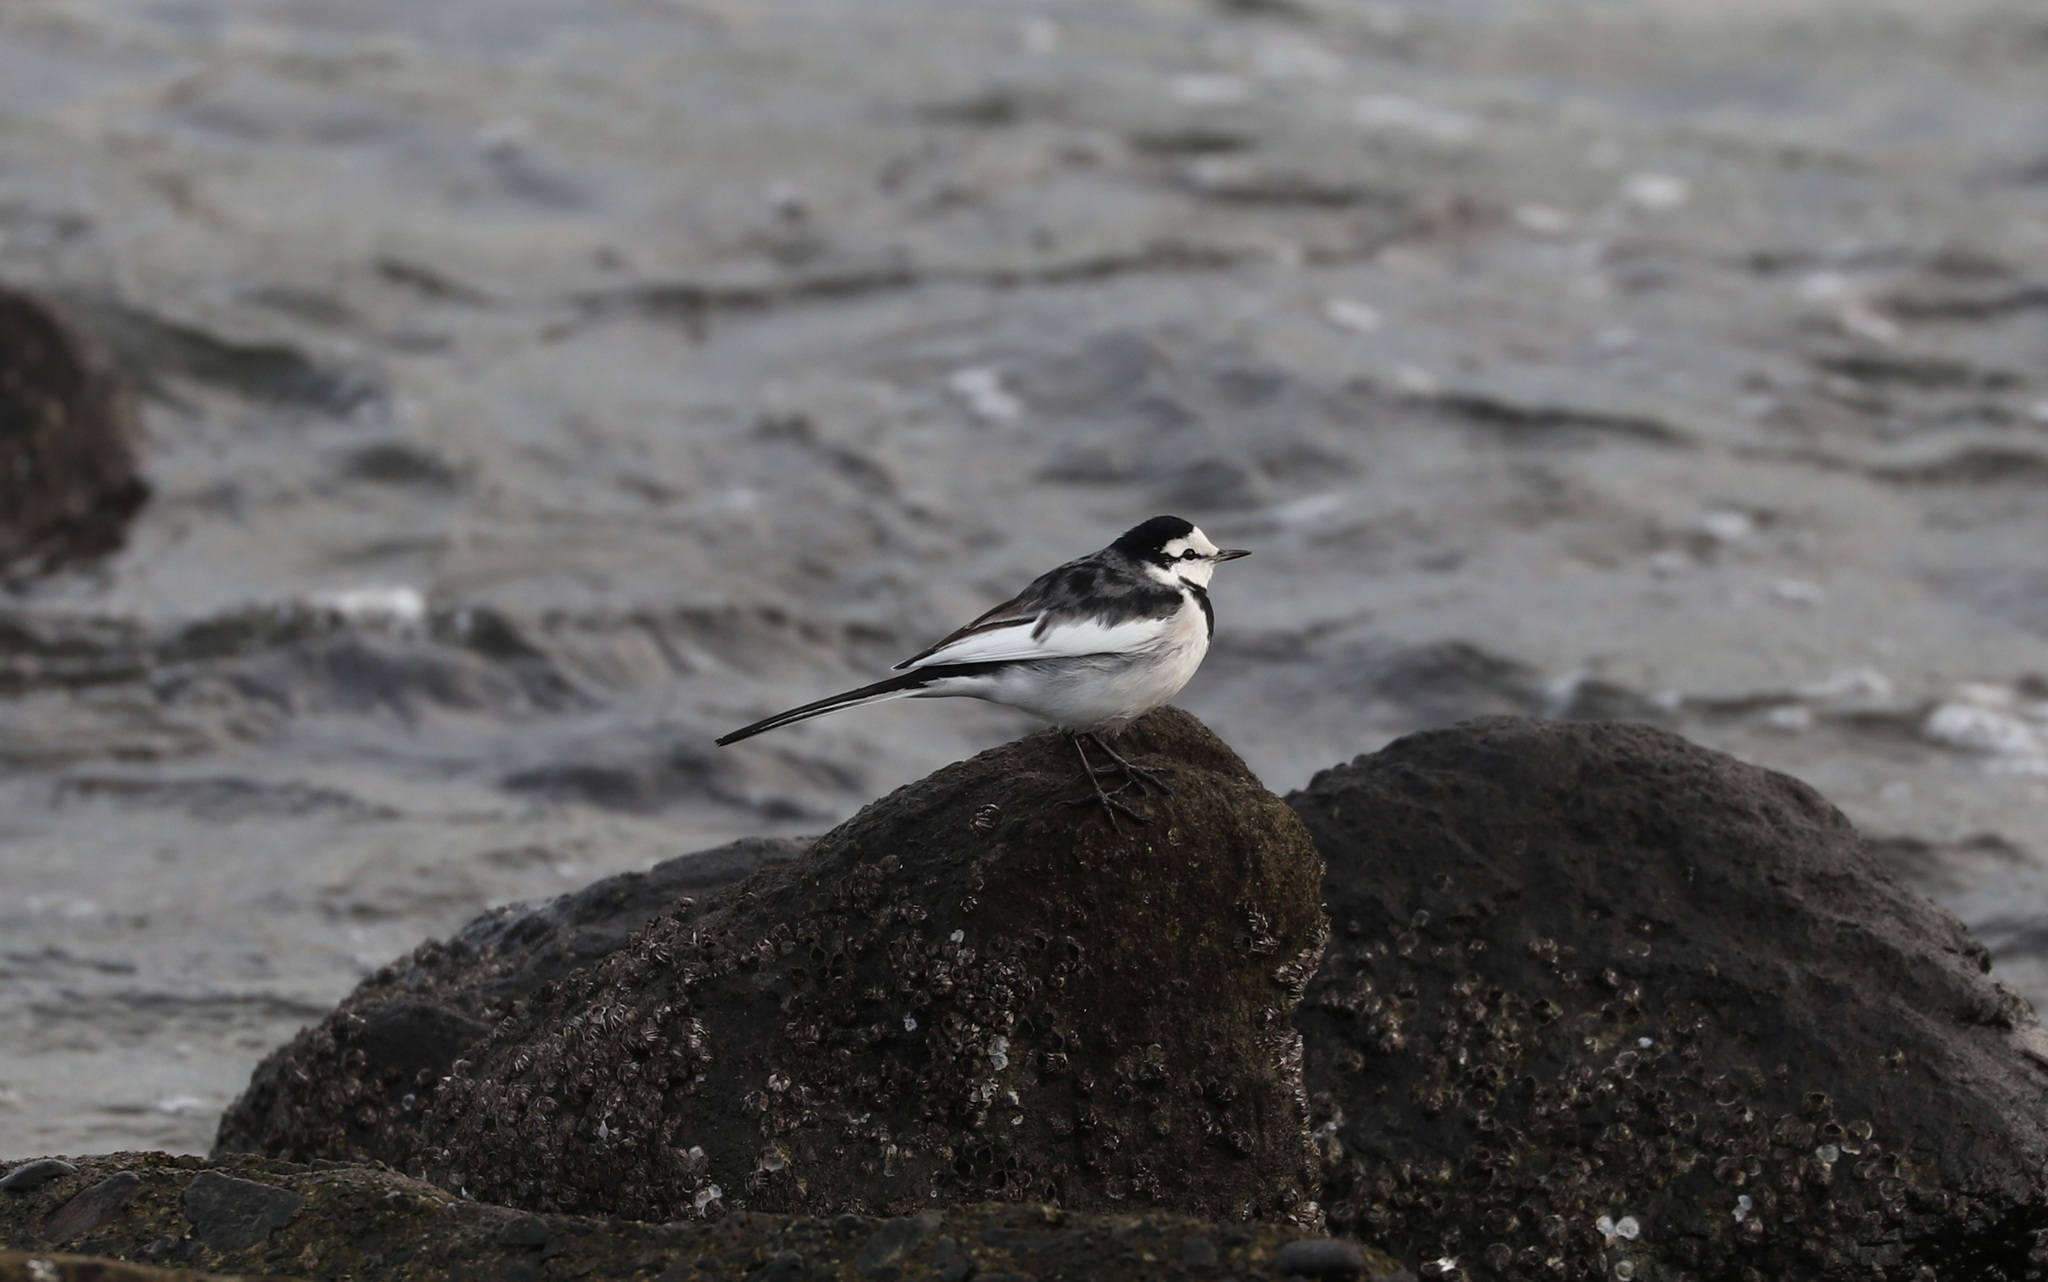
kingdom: Animalia
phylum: Chordata
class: Aves
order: Passeriformes
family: Motacillidae
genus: Motacilla
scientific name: Motacilla alba
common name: White wagtail
